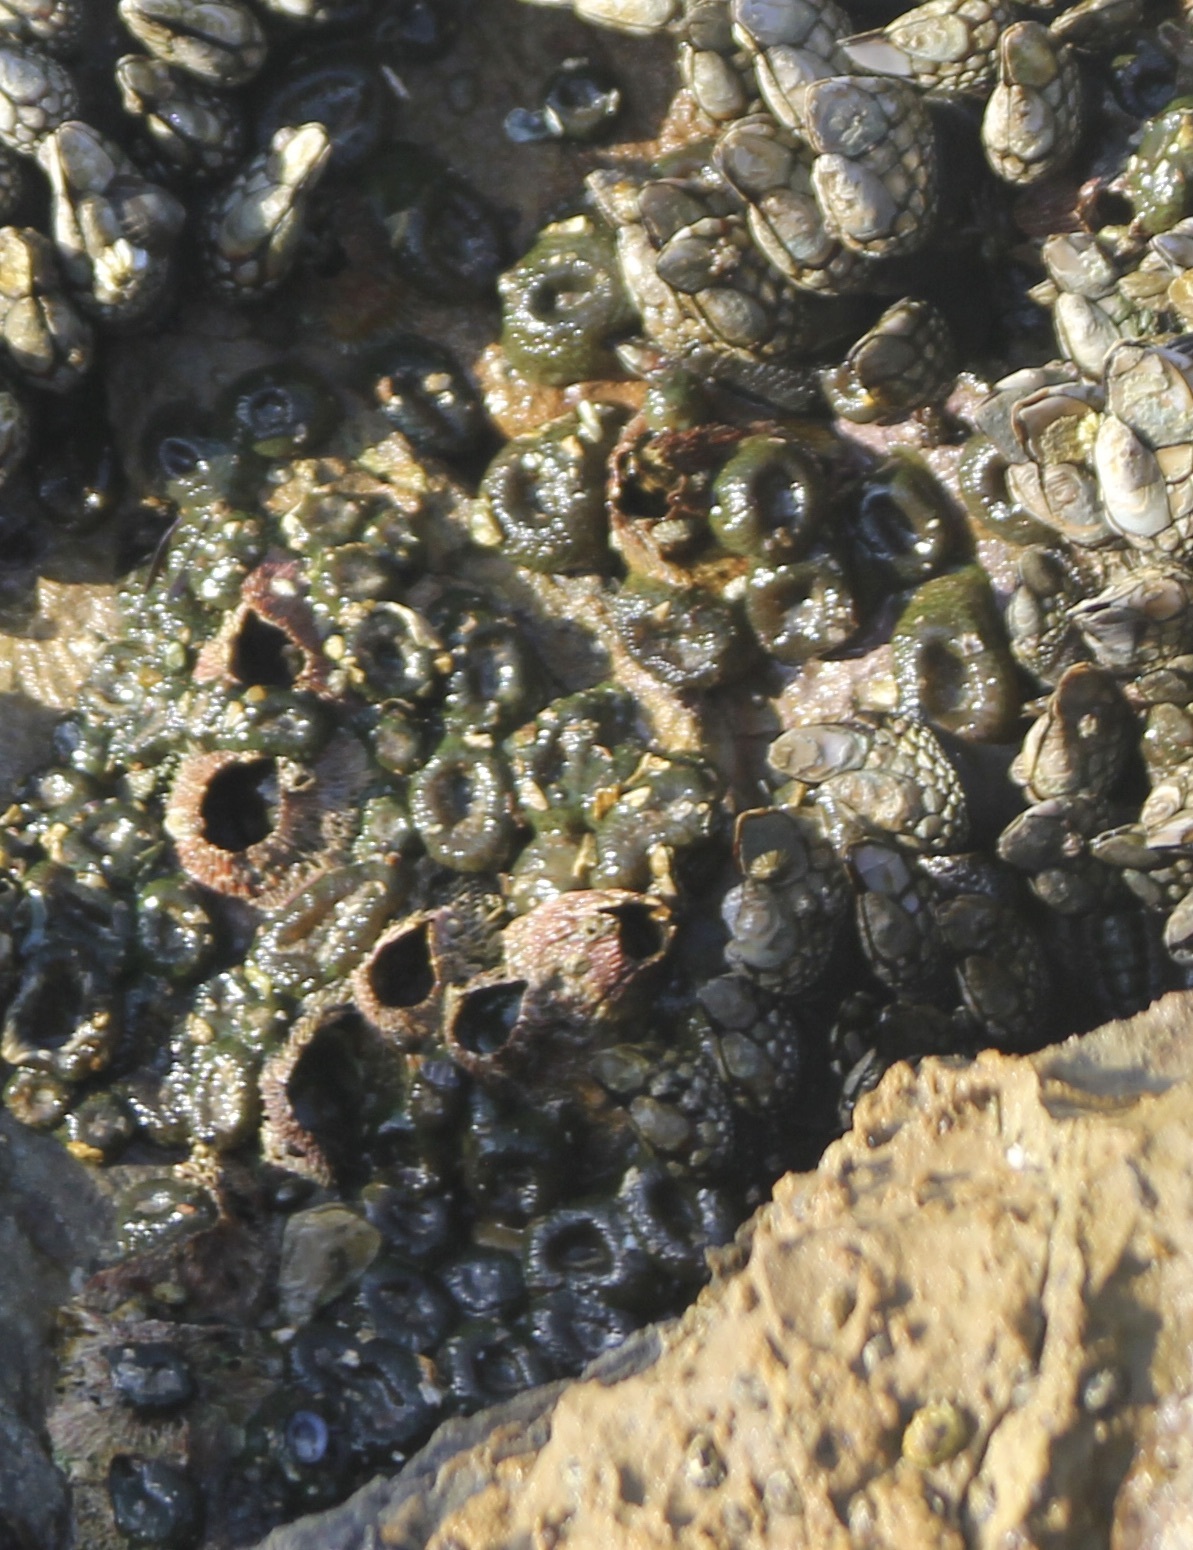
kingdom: Animalia
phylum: Arthropoda
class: Maxillopoda
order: Sessilia
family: Tetraclitidae
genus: Tetraclita
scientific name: Tetraclita rubescens
